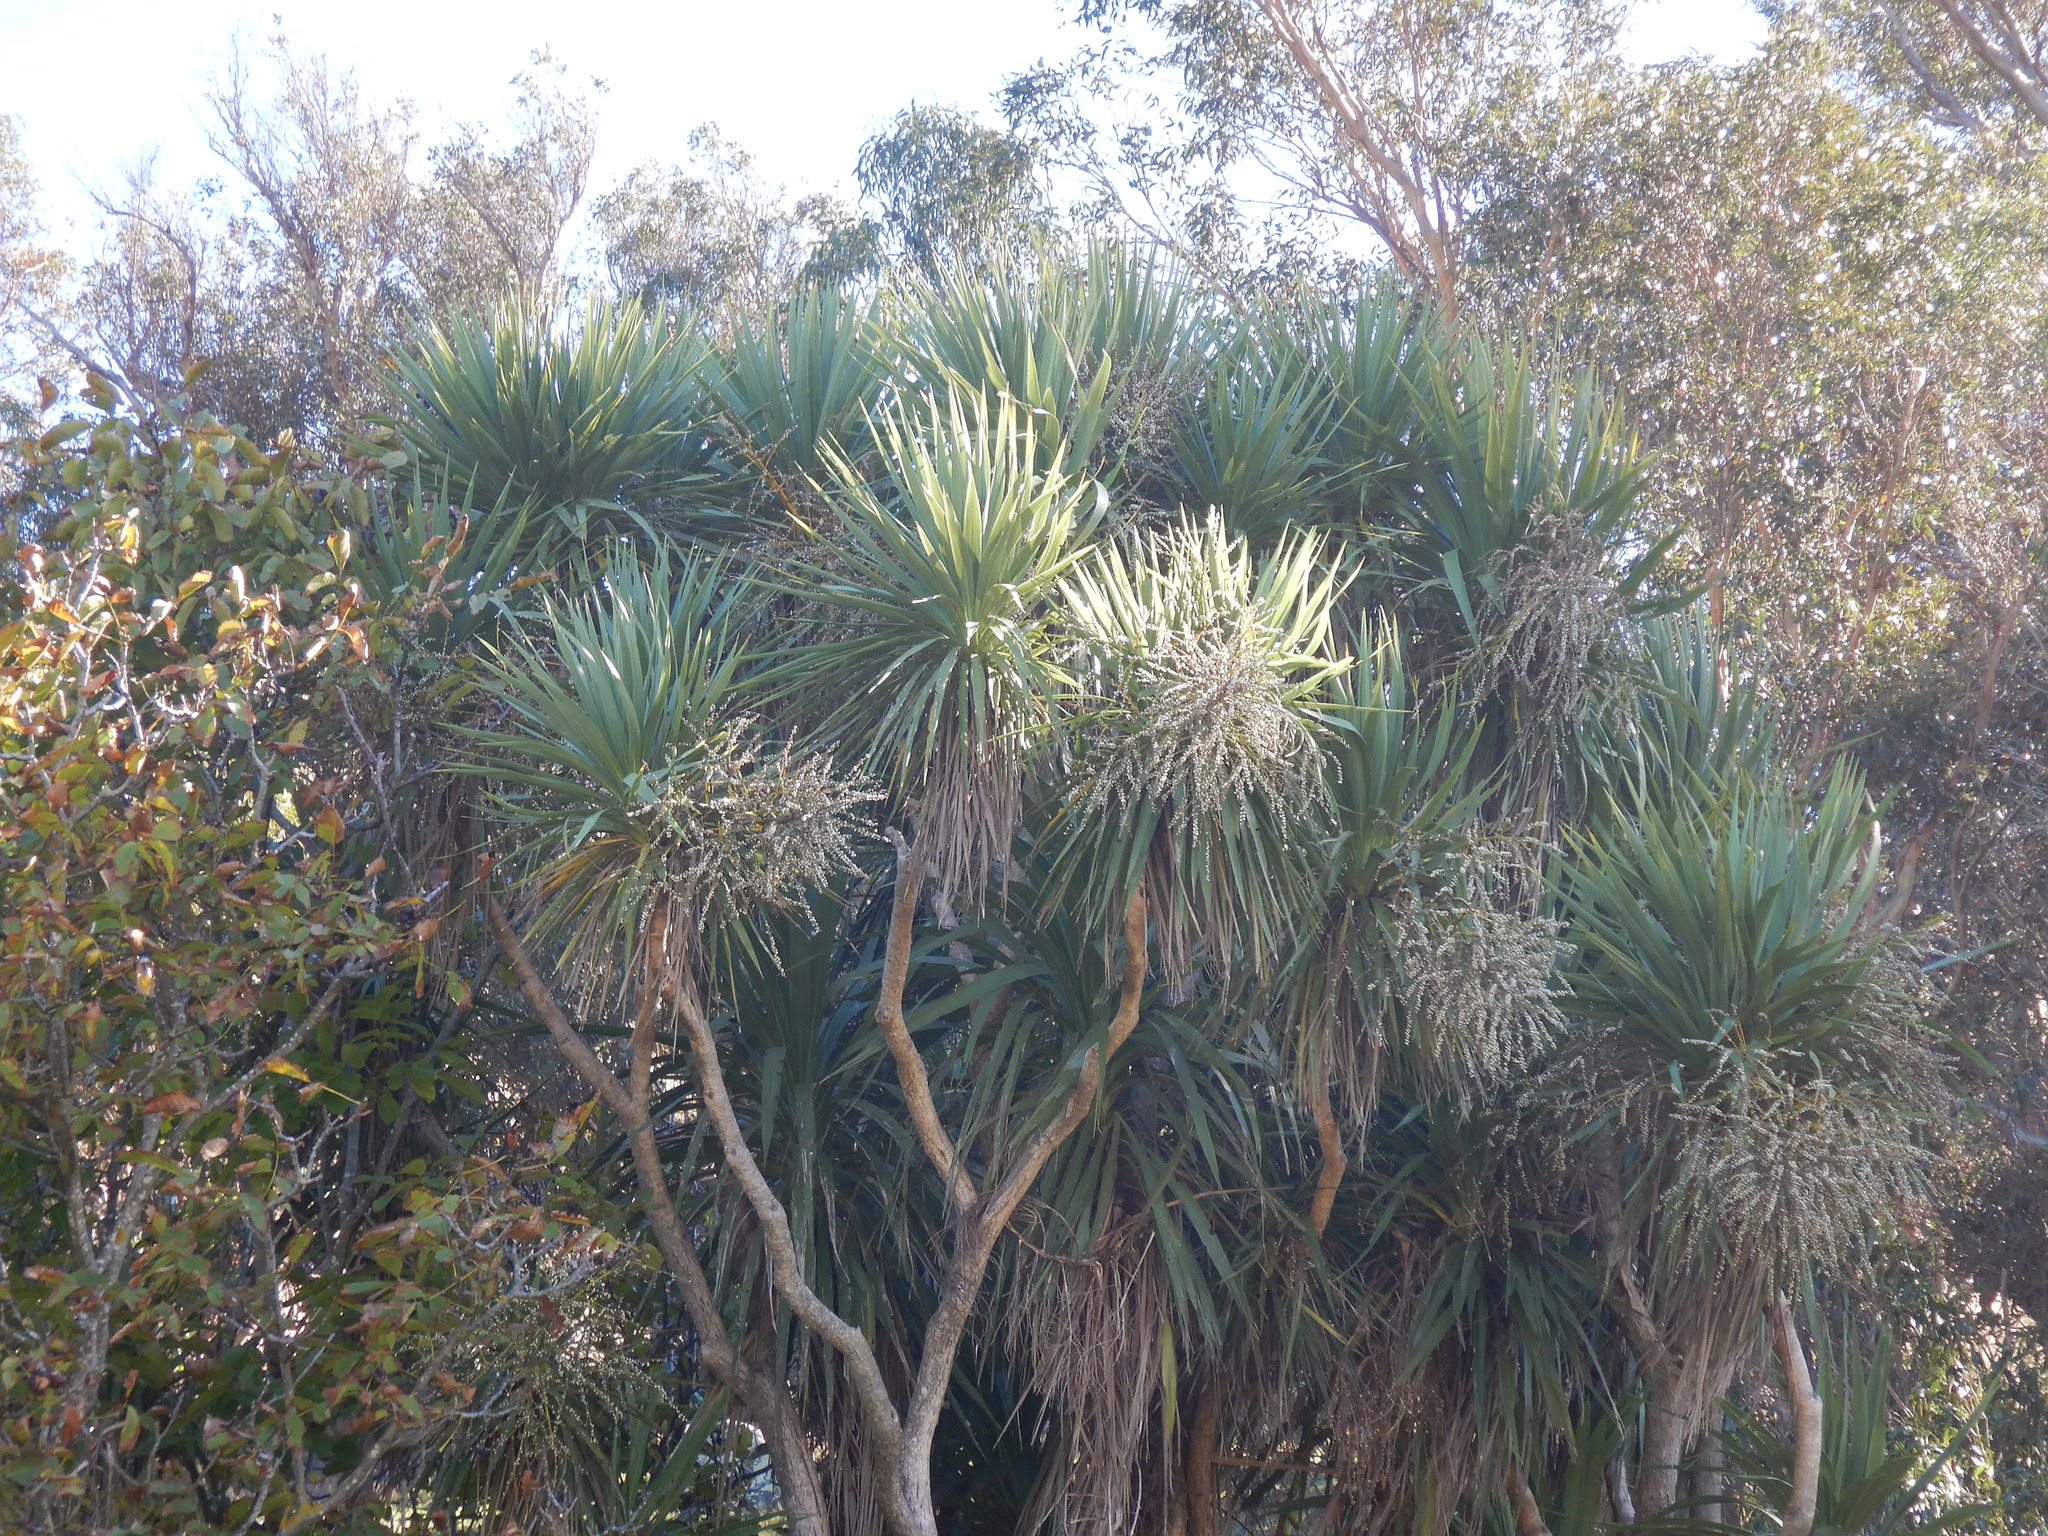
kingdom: Plantae
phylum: Tracheophyta
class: Liliopsida
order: Asparagales
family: Asparagaceae
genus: Cordyline
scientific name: Cordyline australis
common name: Cabbage-palm
